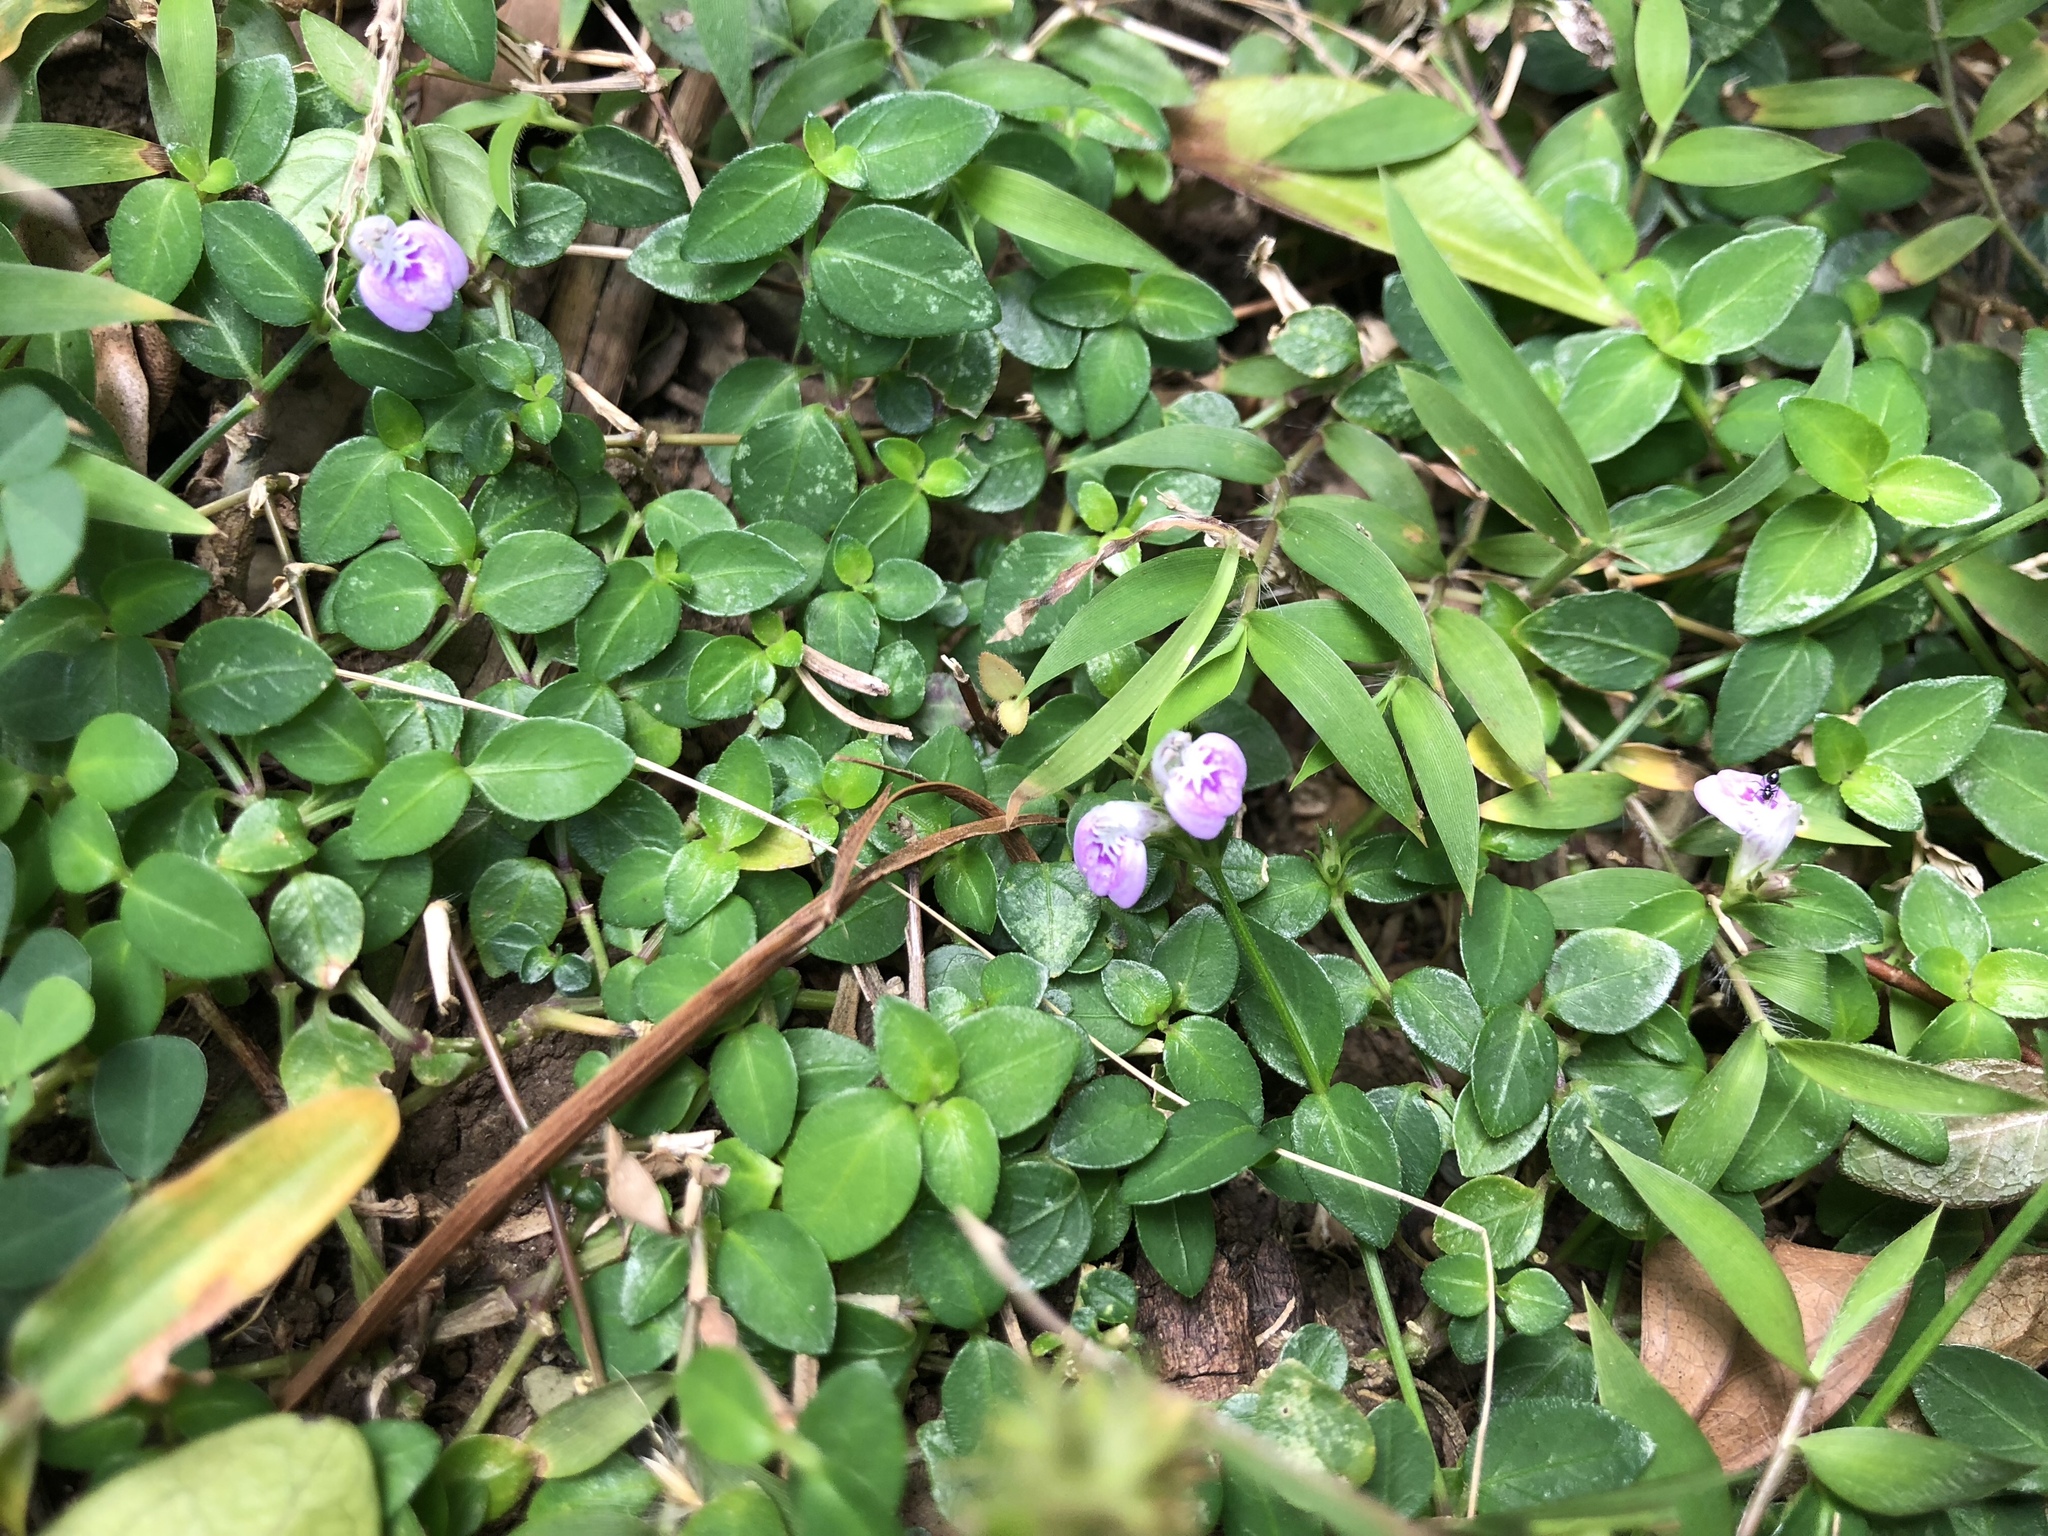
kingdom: Plantae
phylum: Tracheophyta
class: Magnoliopsida
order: Lamiales
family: Acanthaceae
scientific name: Acanthaceae
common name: Acanthaceae
